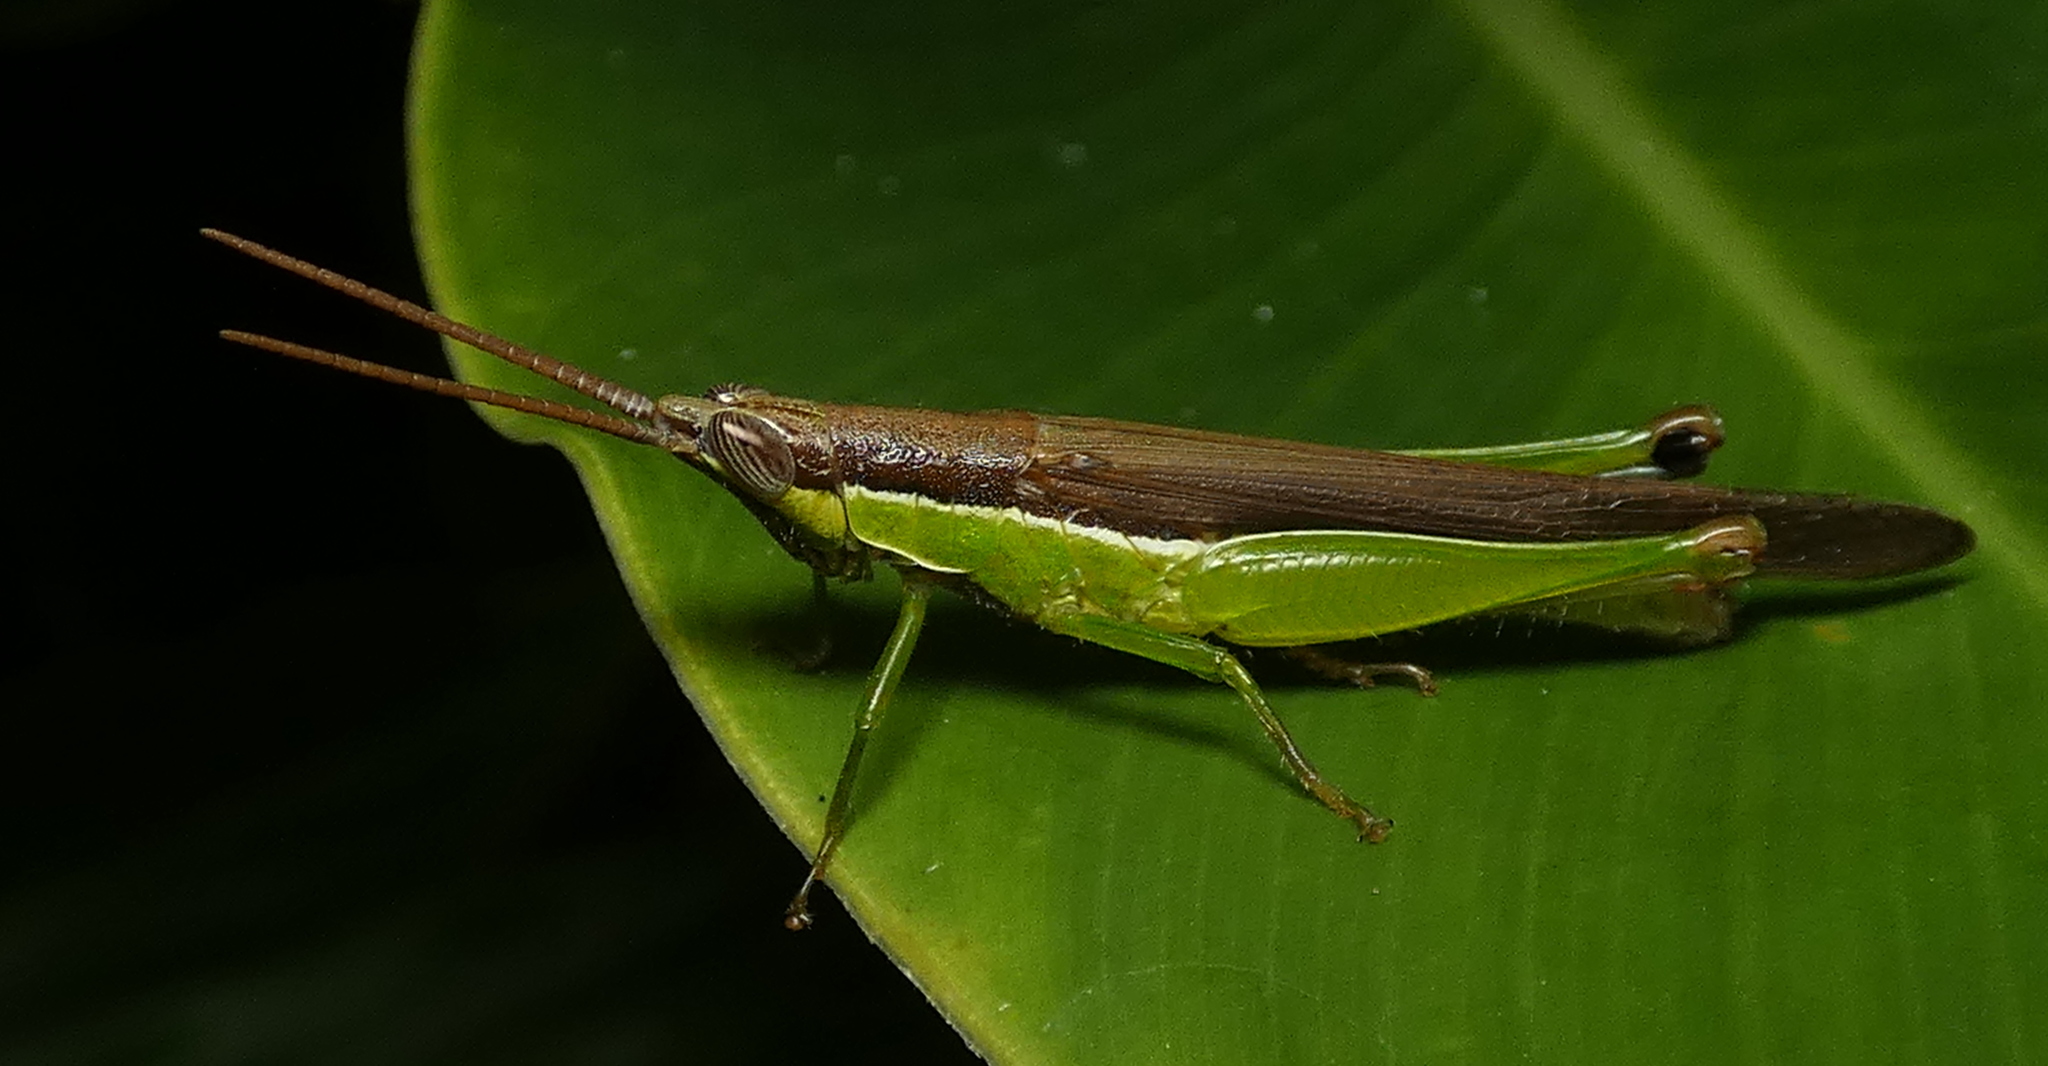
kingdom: Animalia
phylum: Arthropoda
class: Insecta
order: Orthoptera
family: Acrididae
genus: Stenopola
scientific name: Stenopola dorsalis
